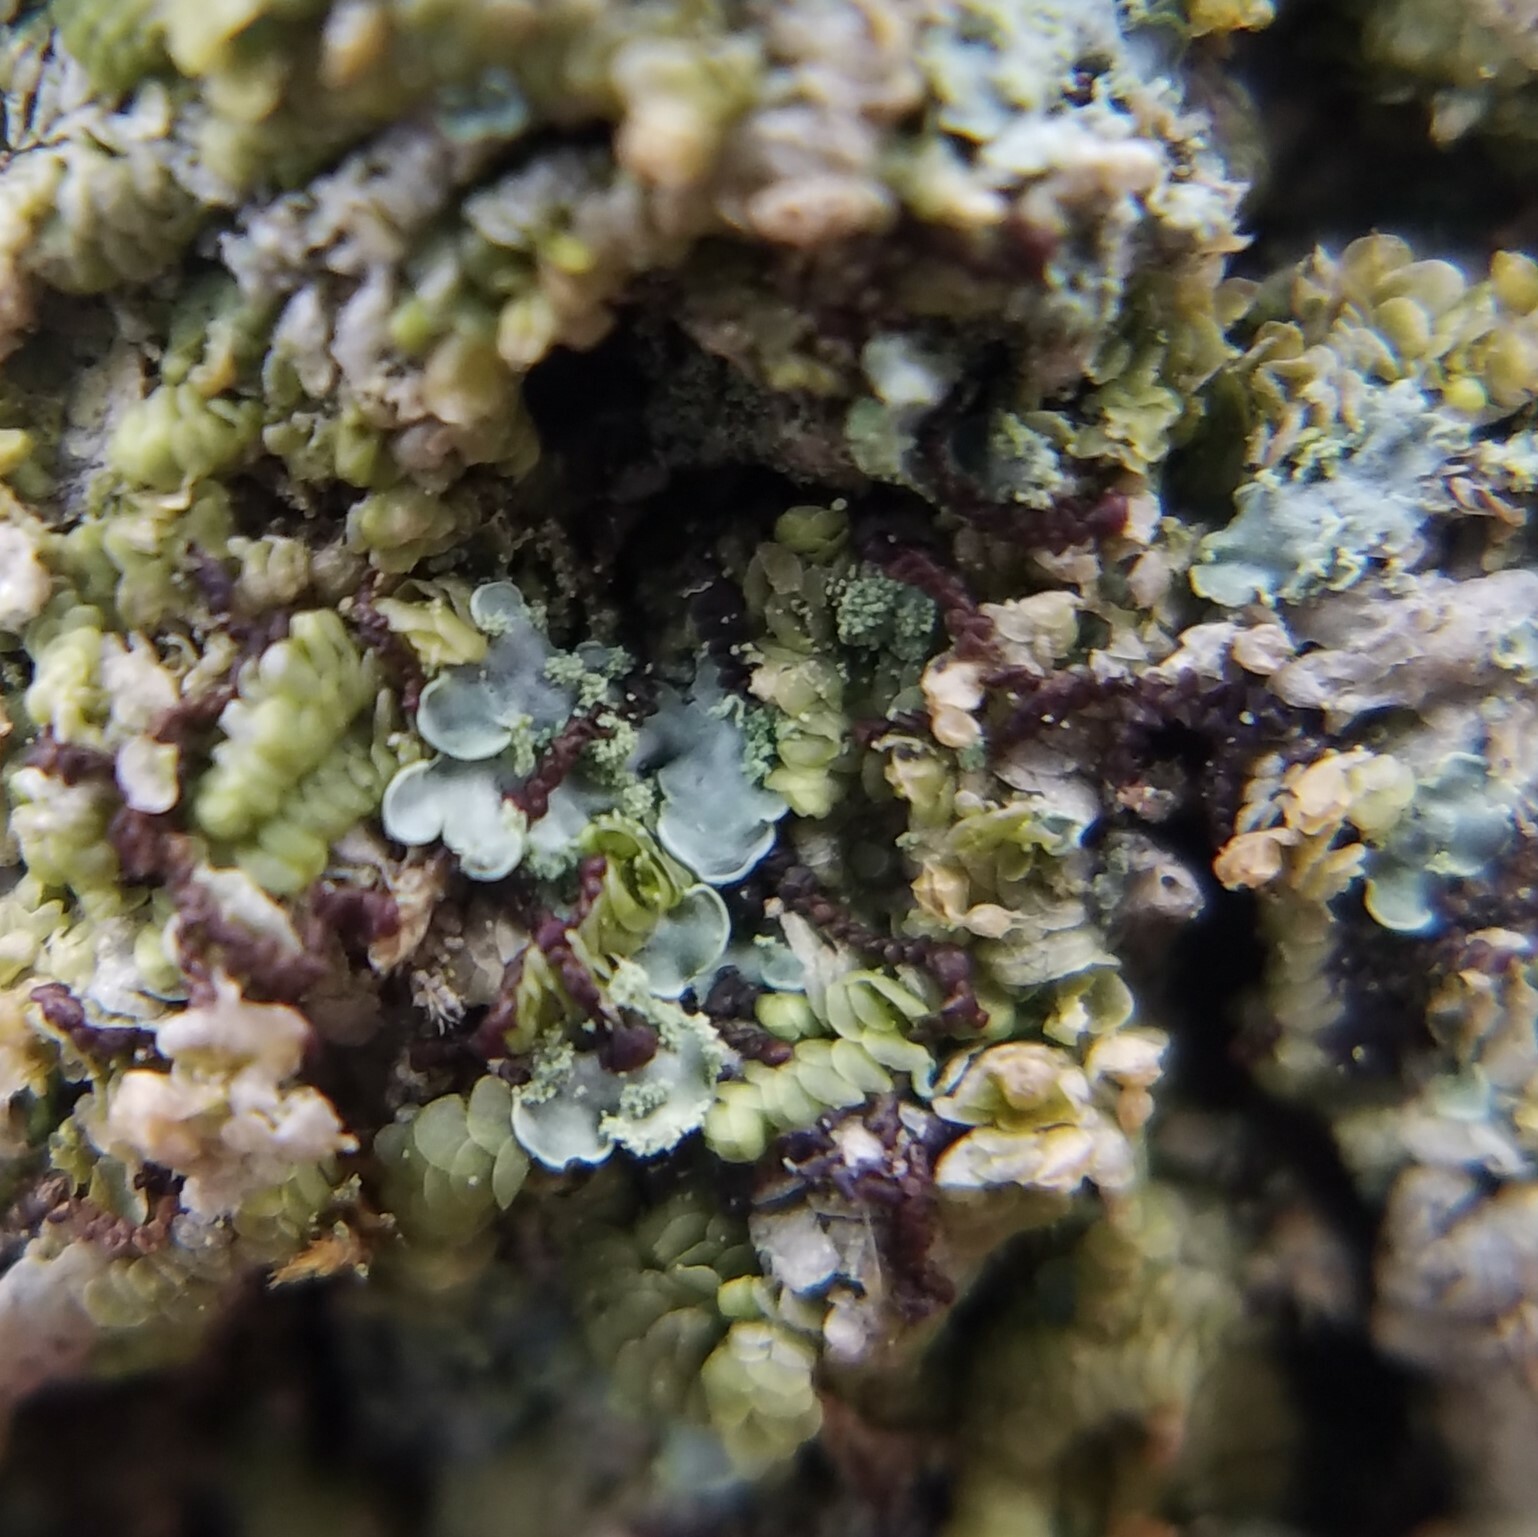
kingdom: Fungi
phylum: Ascomycota
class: Eurotiomycetes
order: Verrucariales
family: Verrucariaceae
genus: Normandina
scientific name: Normandina pulchella
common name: Elf ears lichen
